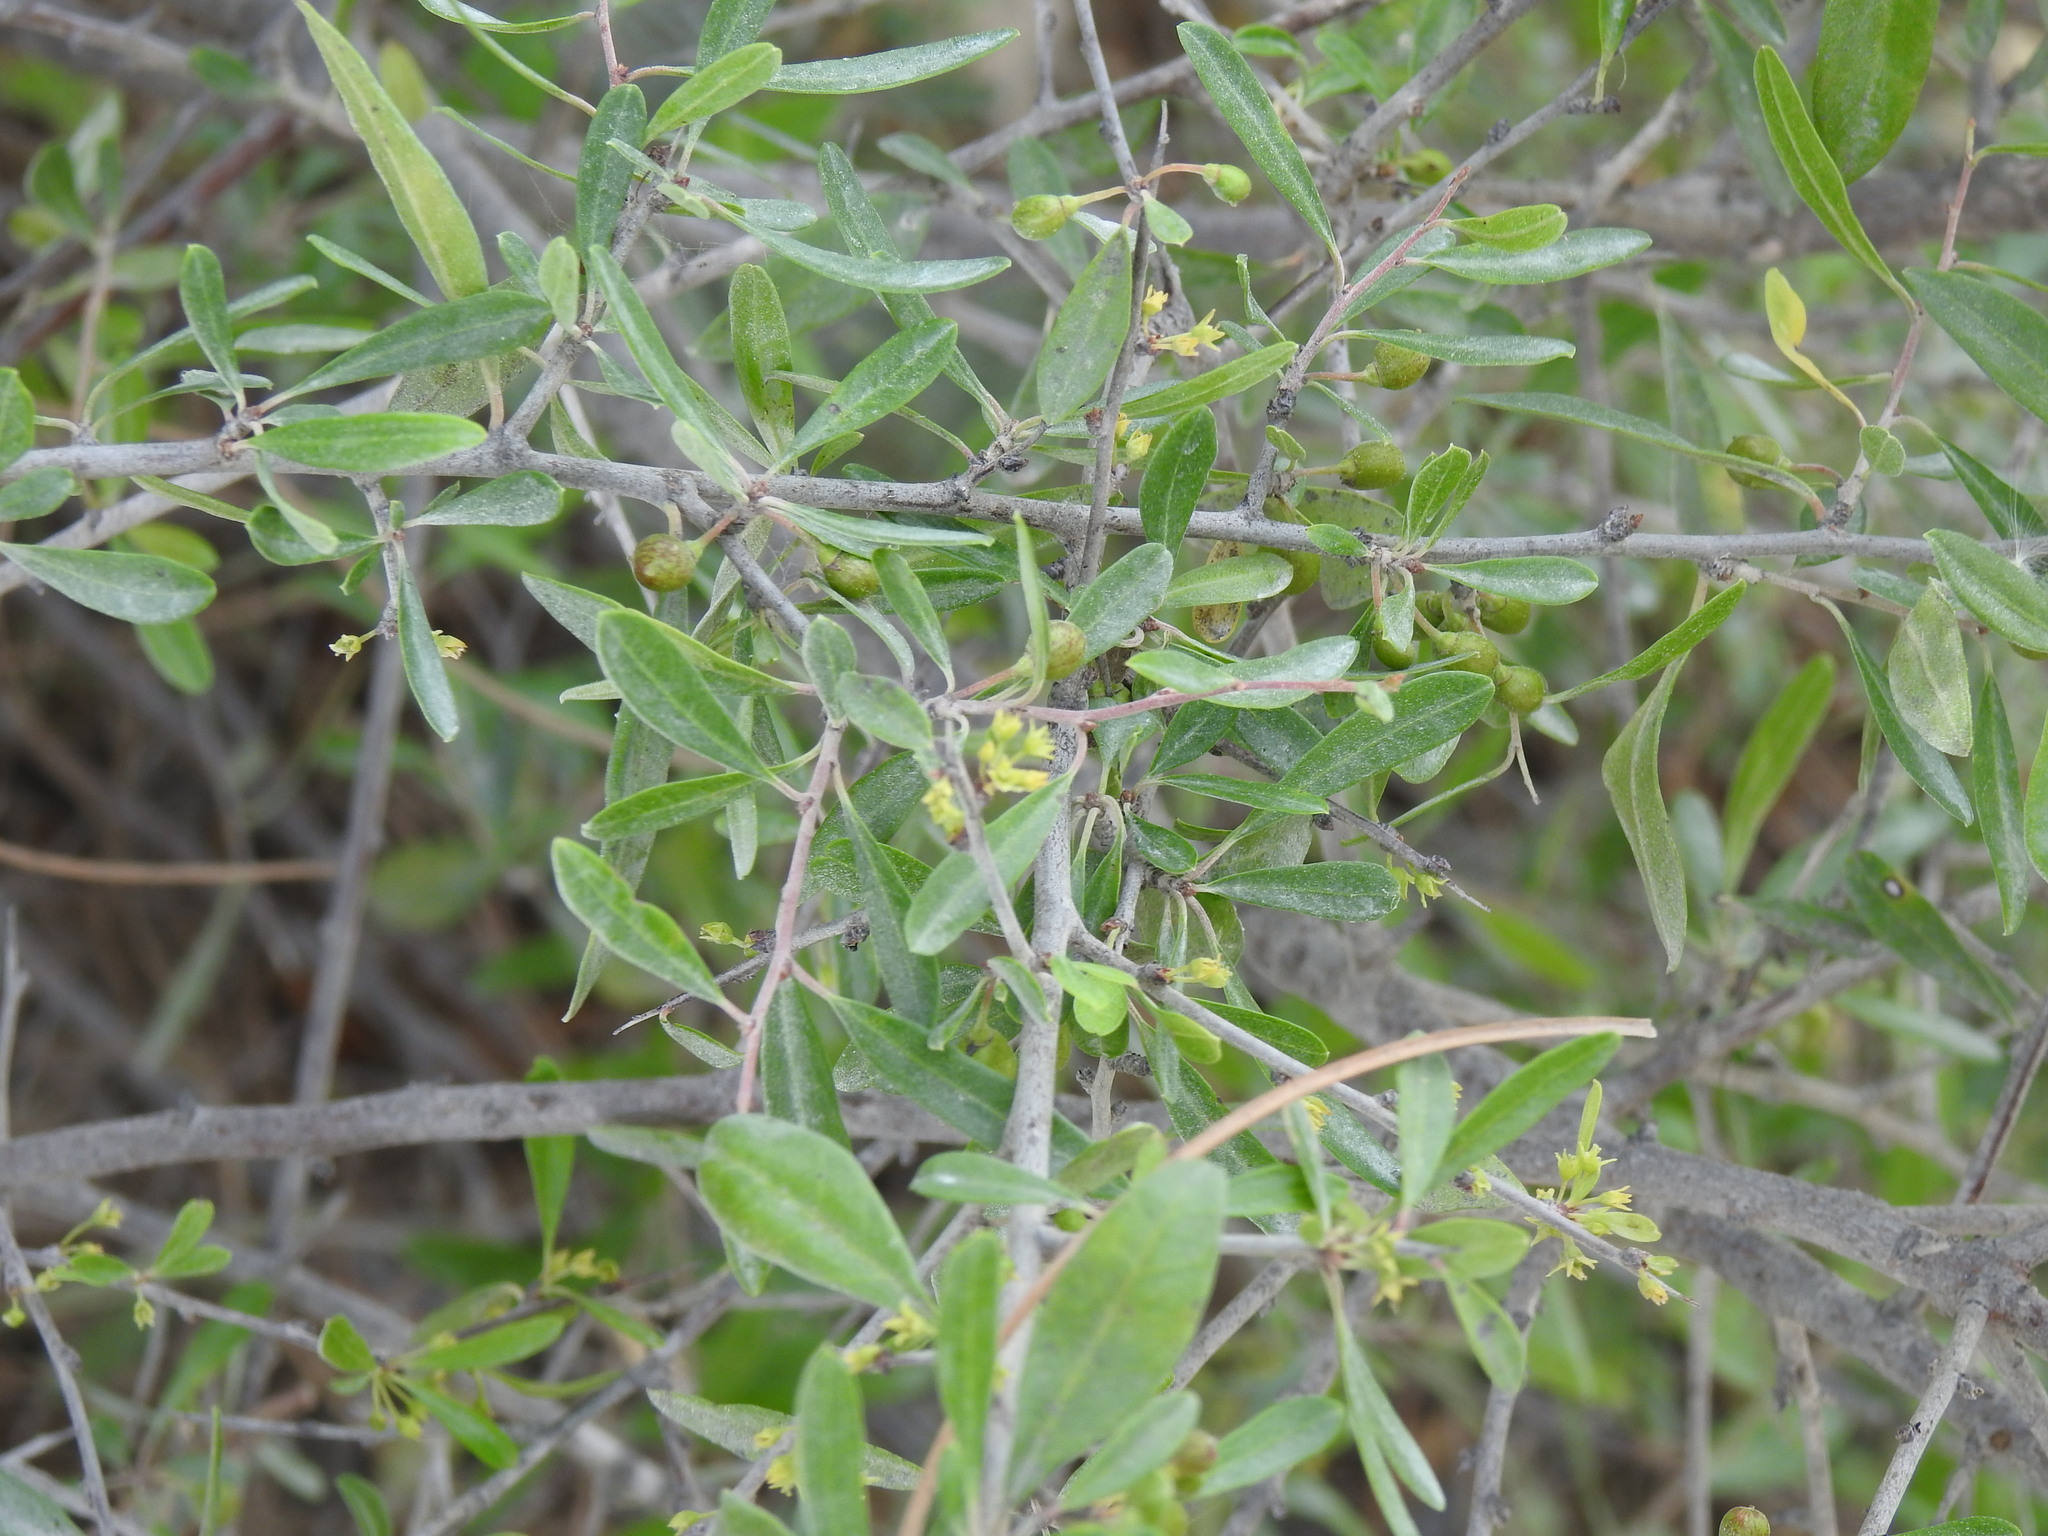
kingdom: Plantae
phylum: Tracheophyta
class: Magnoliopsida
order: Rosales
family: Rhamnaceae
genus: Rhamnus
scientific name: Rhamnus oleoides
